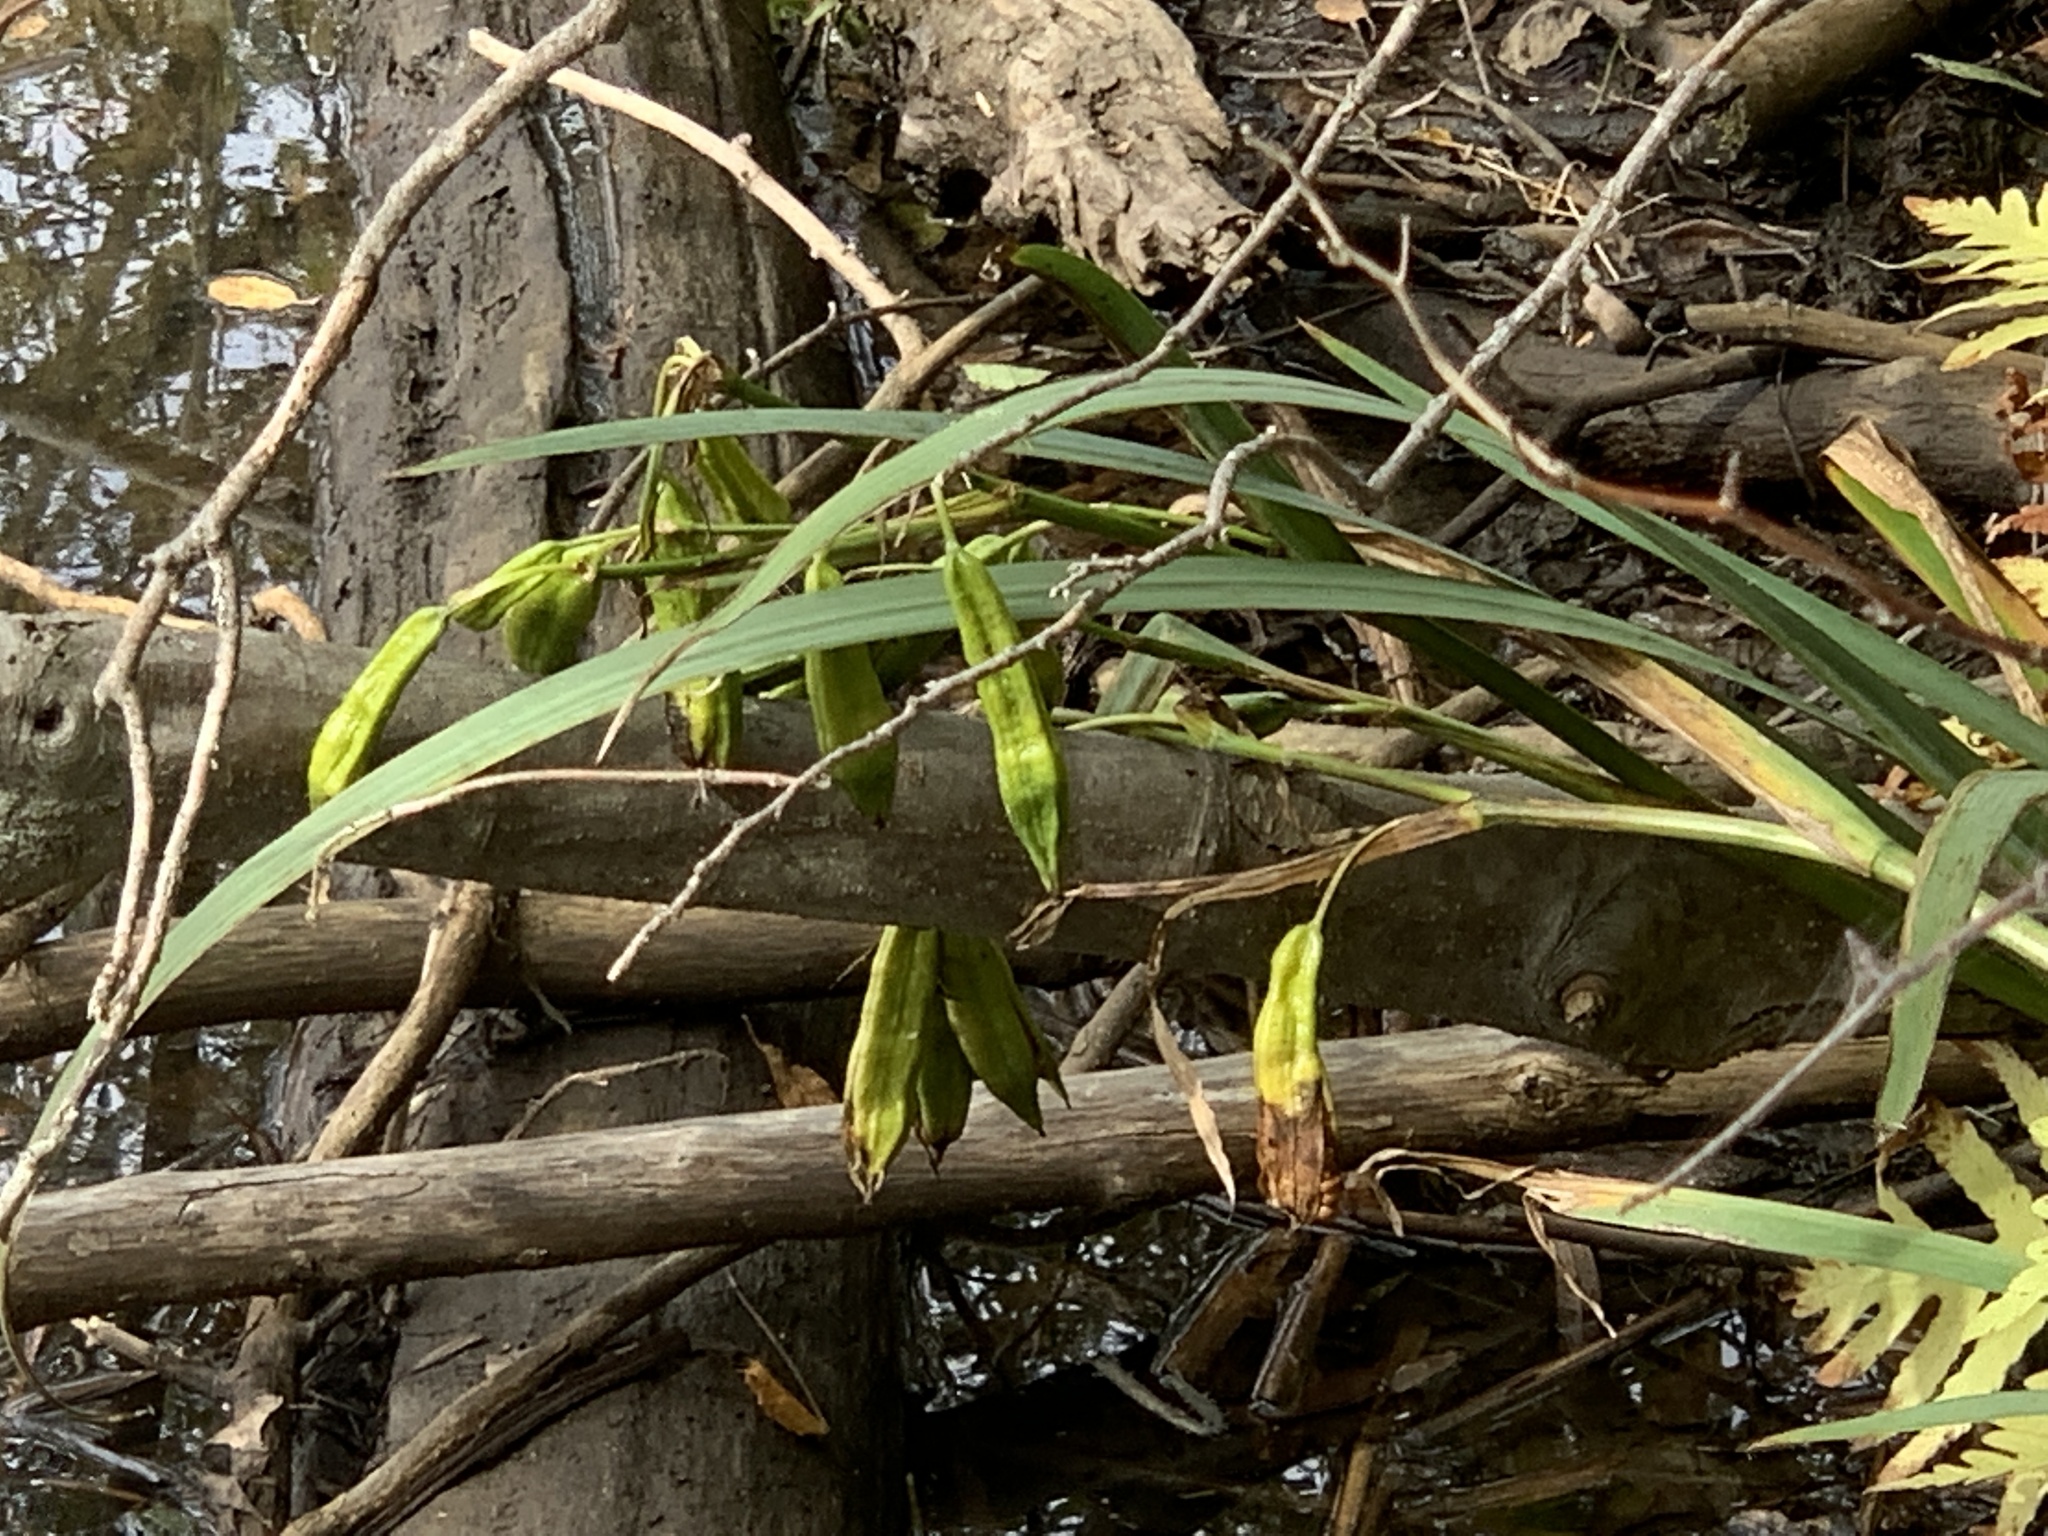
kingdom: Plantae
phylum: Tracheophyta
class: Liliopsida
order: Asparagales
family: Iridaceae
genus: Iris
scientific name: Iris pseudacorus
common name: Yellow flag
